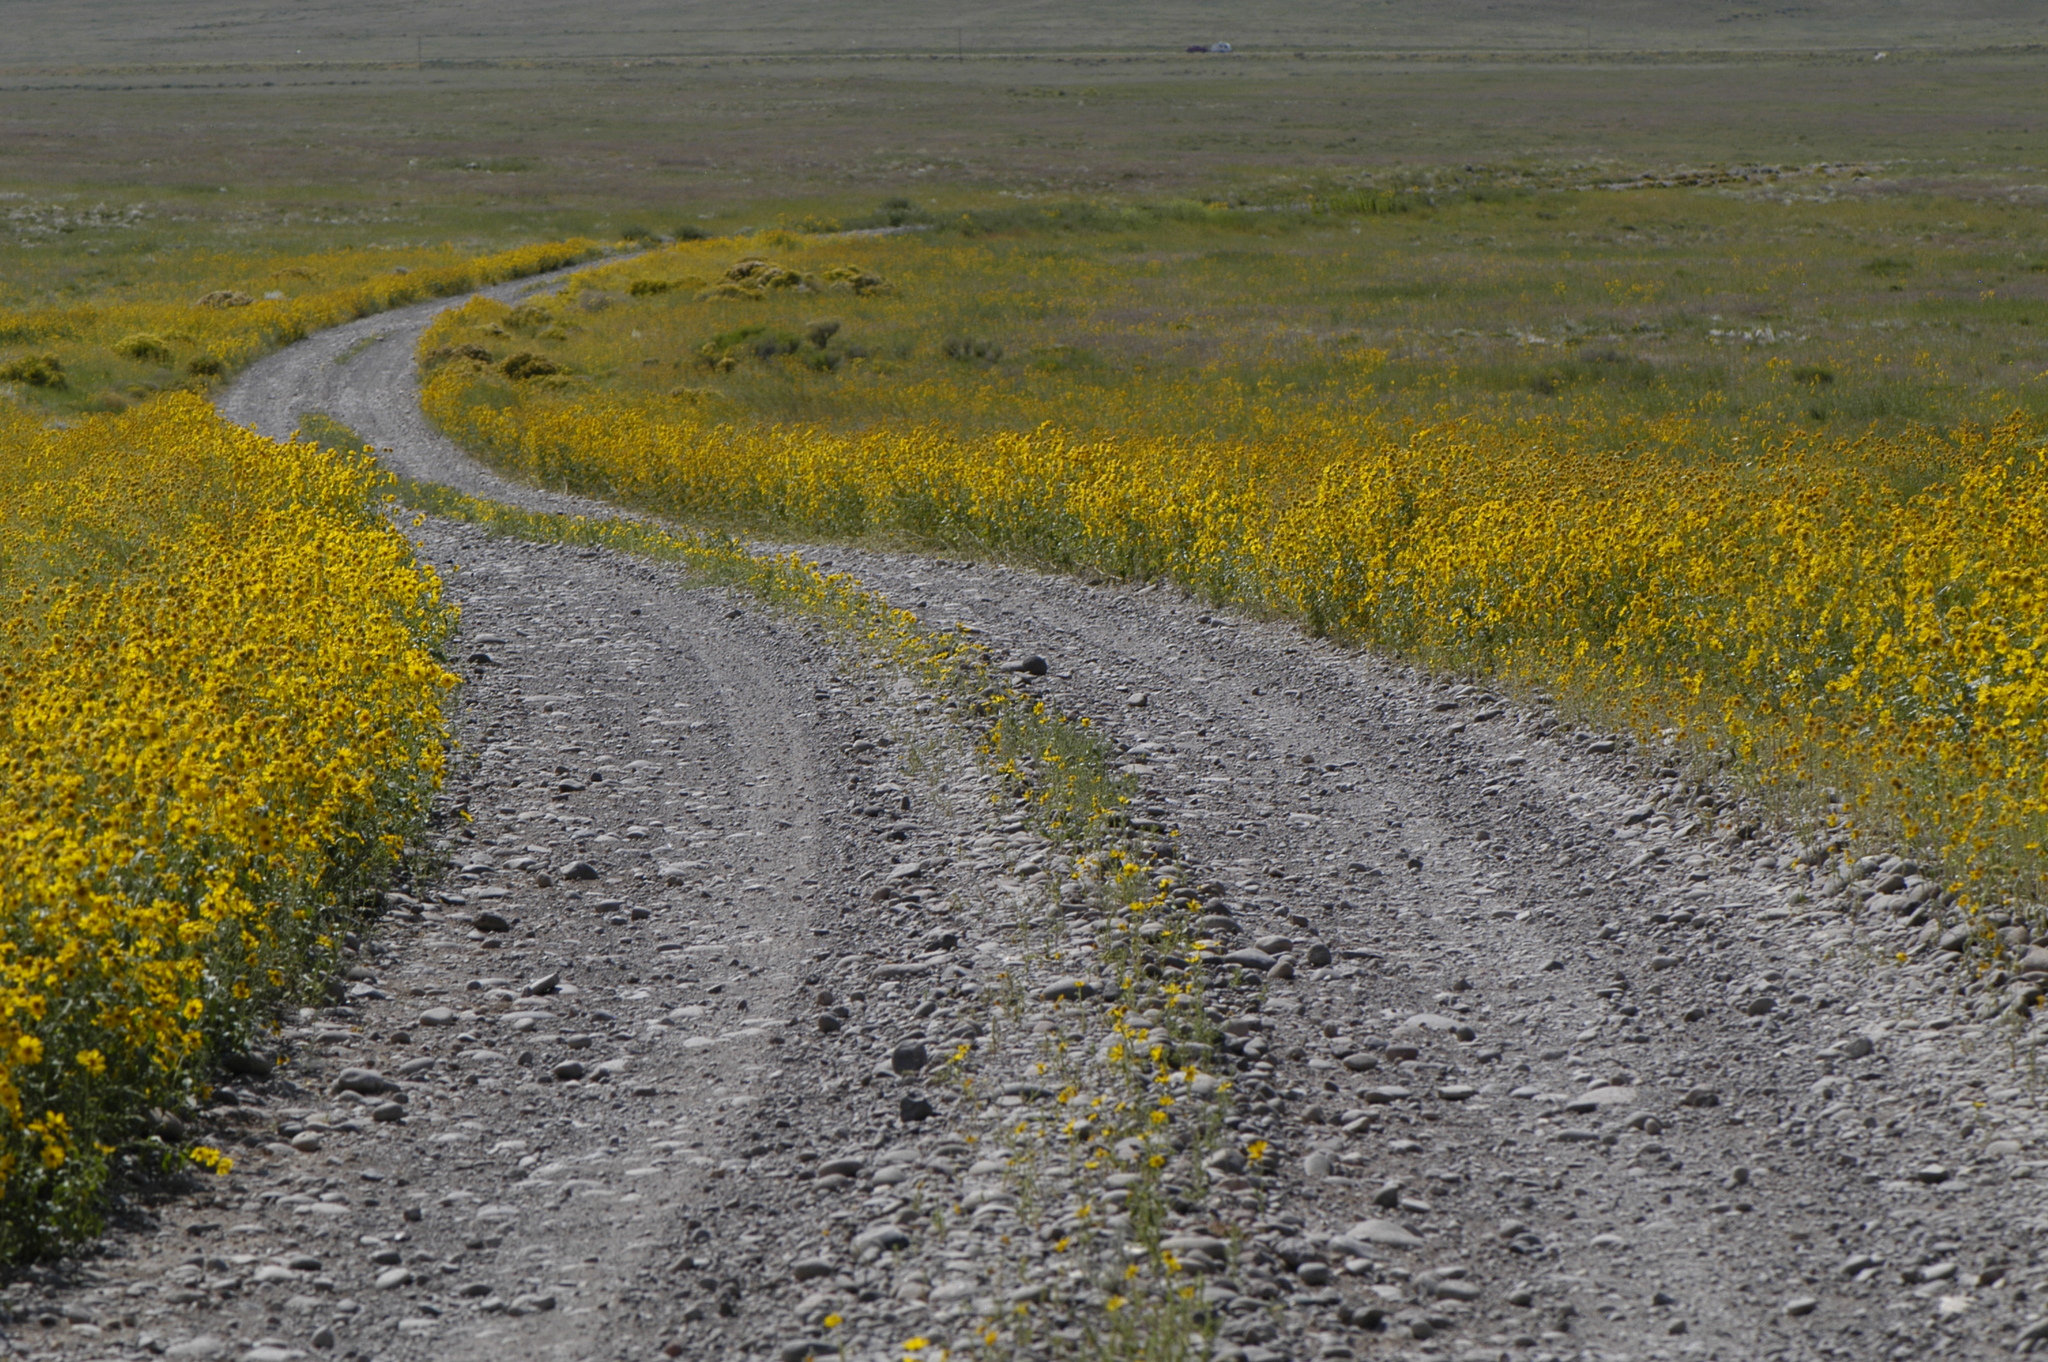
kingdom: Plantae
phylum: Tracheophyta
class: Magnoliopsida
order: Asterales
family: Asteraceae
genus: Verbesina
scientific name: Verbesina encelioides
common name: Golden crownbeard
